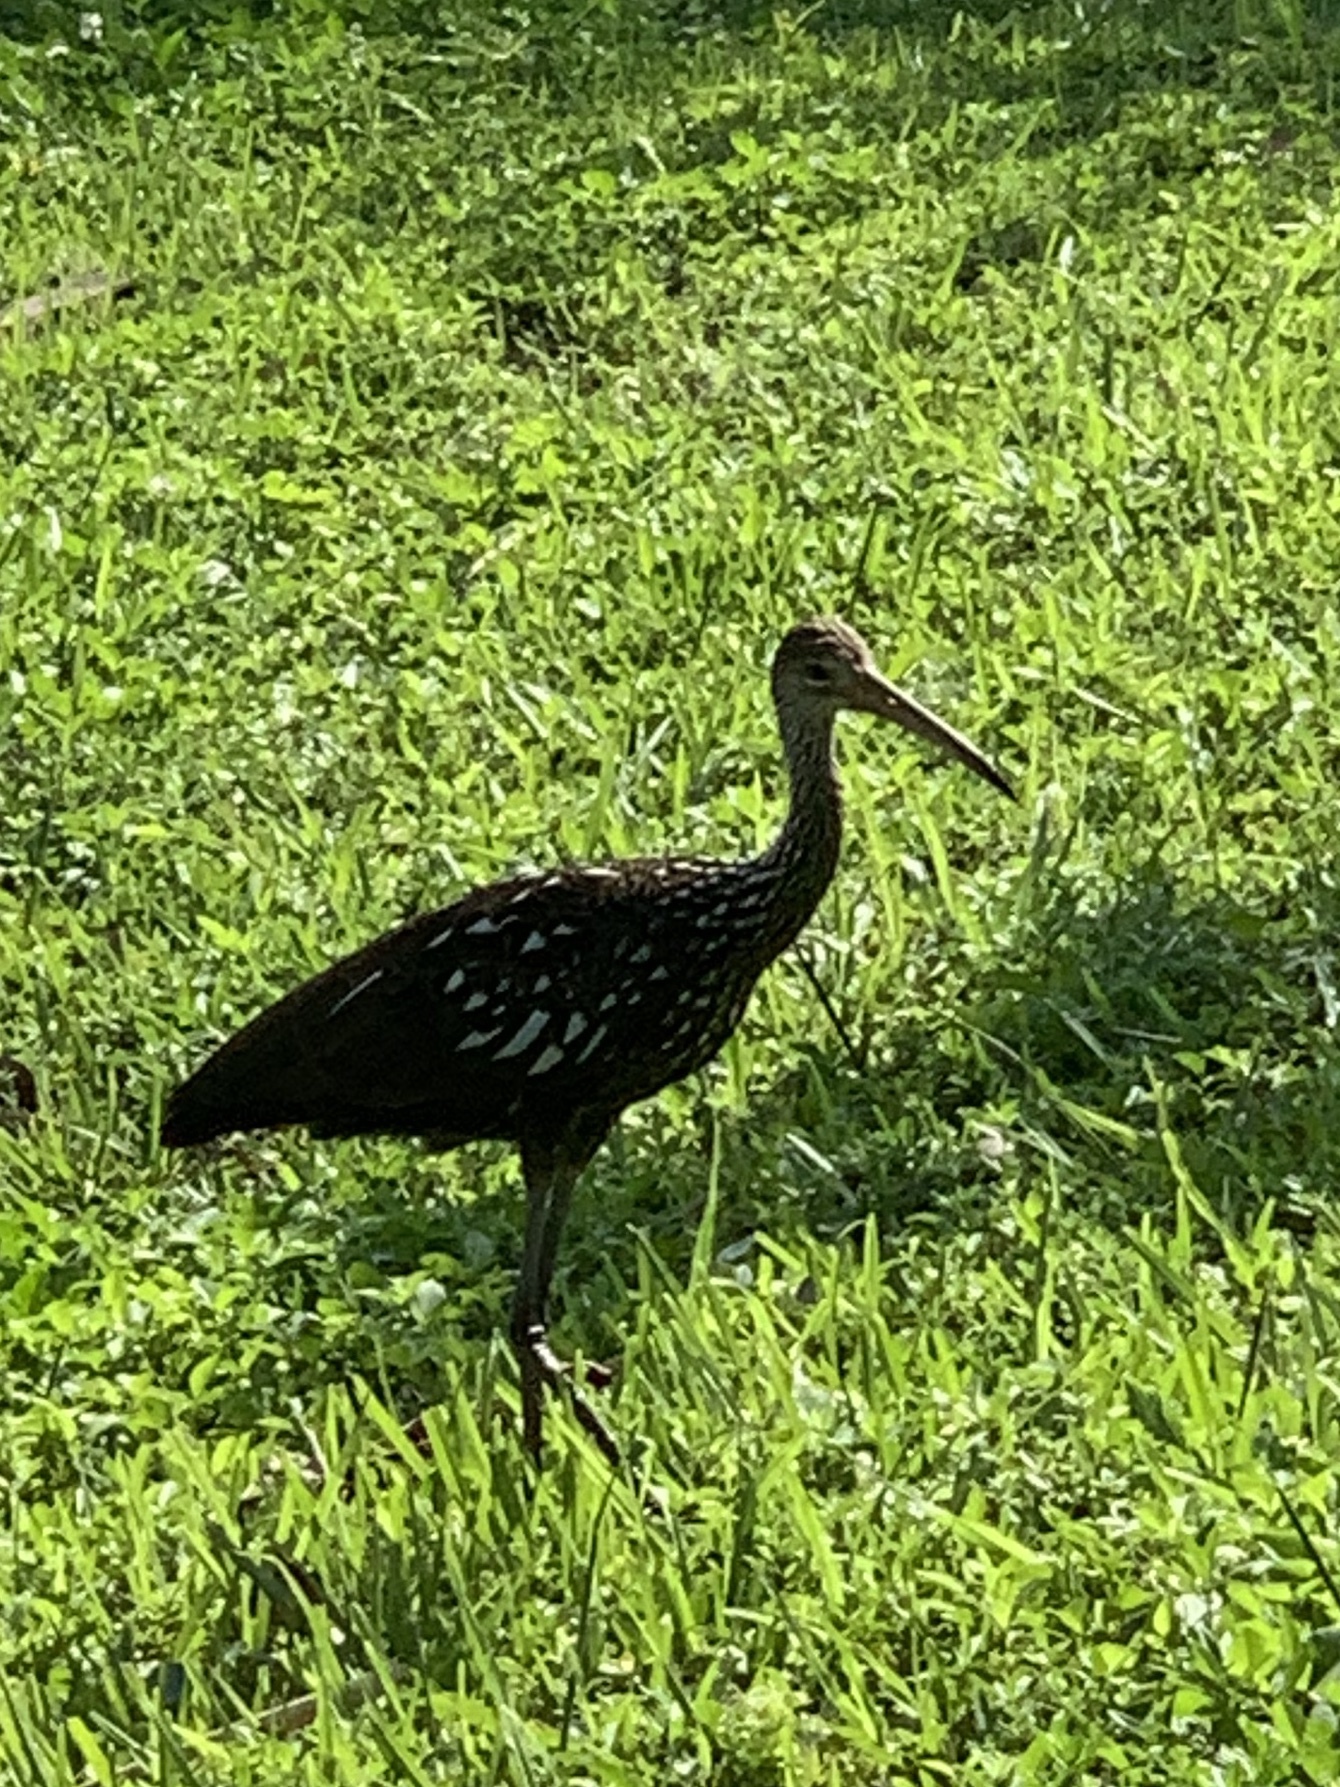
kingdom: Animalia
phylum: Chordata
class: Aves
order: Gruiformes
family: Aramidae
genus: Aramus
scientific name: Aramus guarauna
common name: Limpkin
